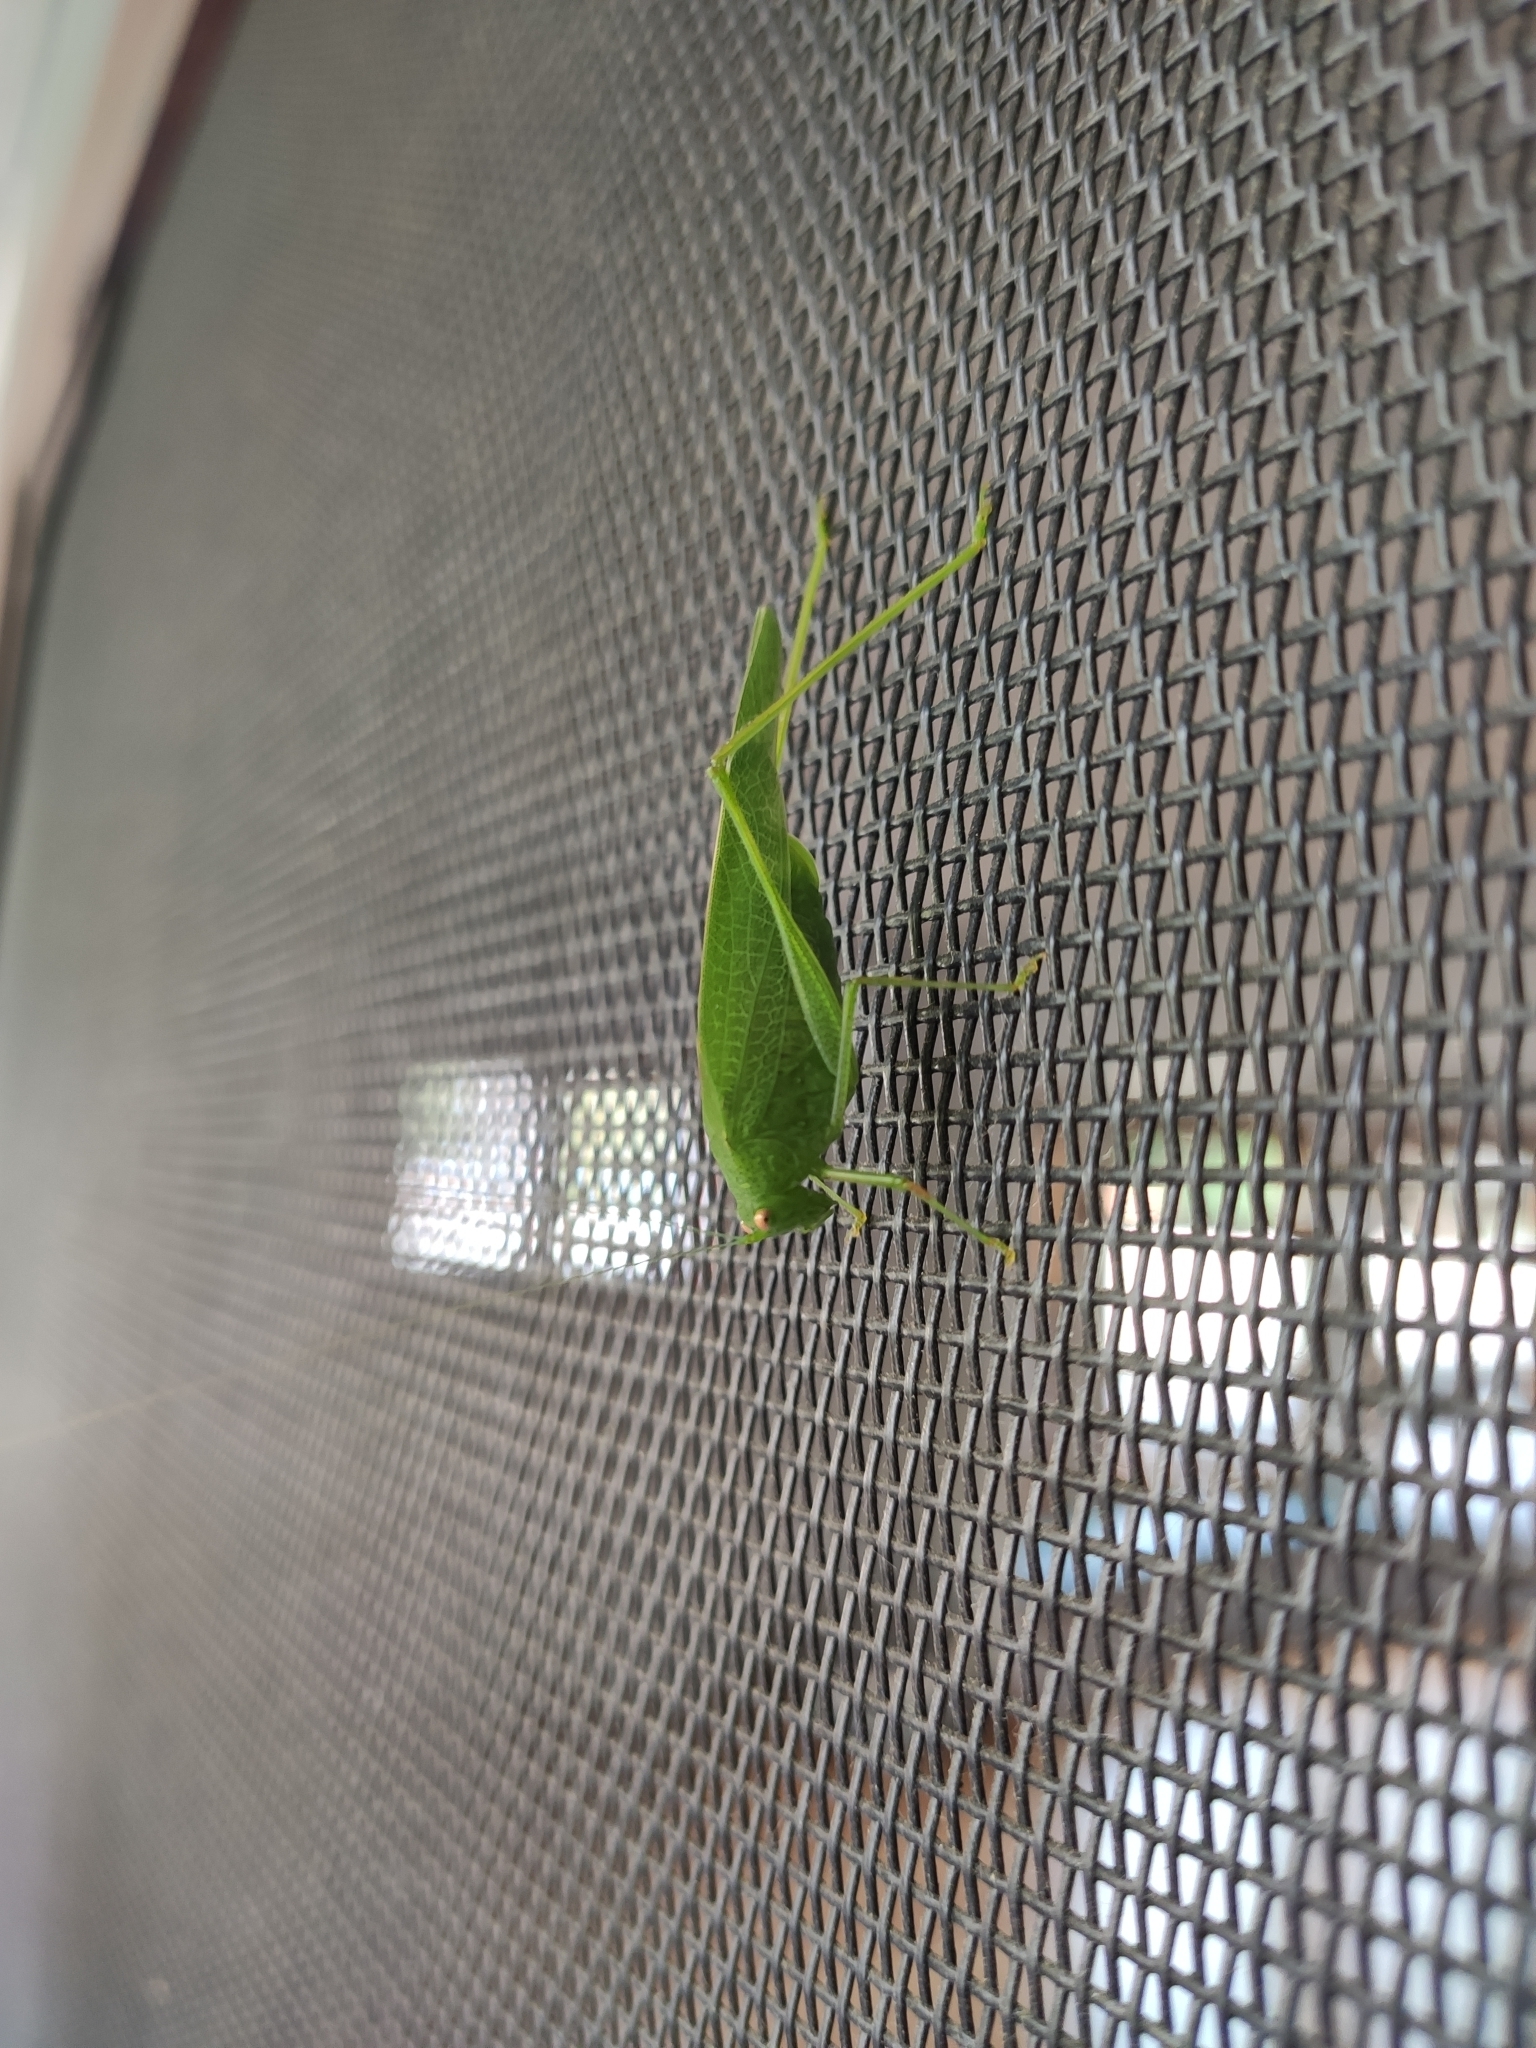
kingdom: Animalia
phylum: Arthropoda
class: Insecta
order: Orthoptera
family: Tettigoniidae
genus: Phaneroptera
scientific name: Phaneroptera nana
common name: Southern sickle bush-cricket
